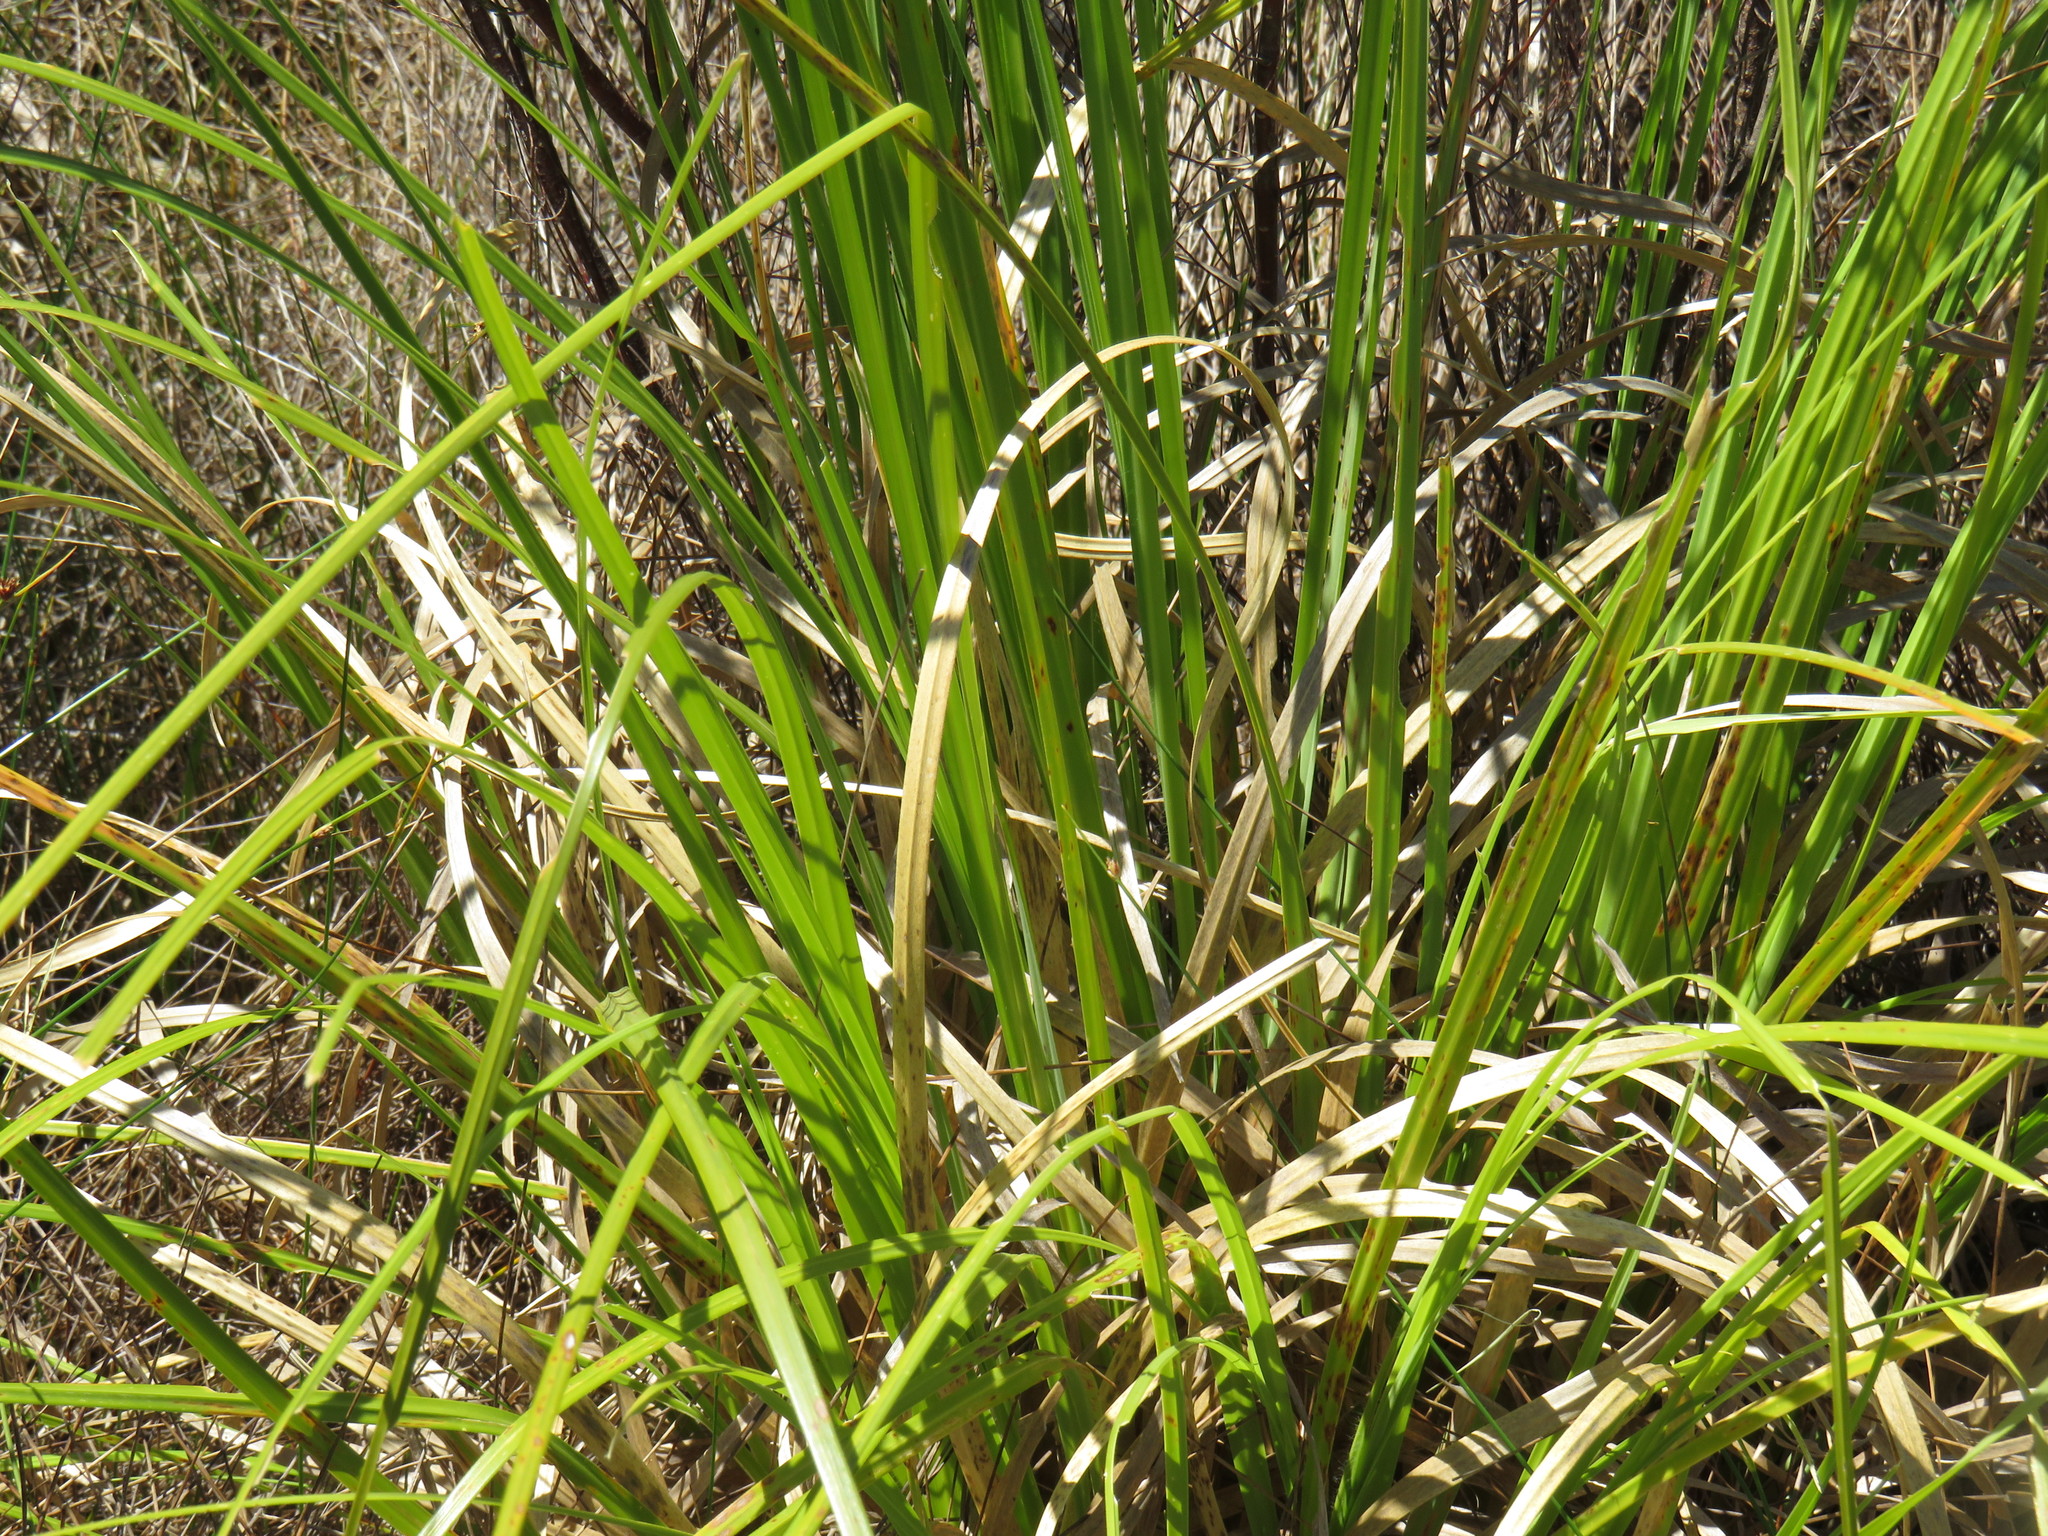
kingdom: Plantae
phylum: Tracheophyta
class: Liliopsida
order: Poales
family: Poaceae
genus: Cortaderia
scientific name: Cortaderia selloana
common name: Uruguayan pampas grass
